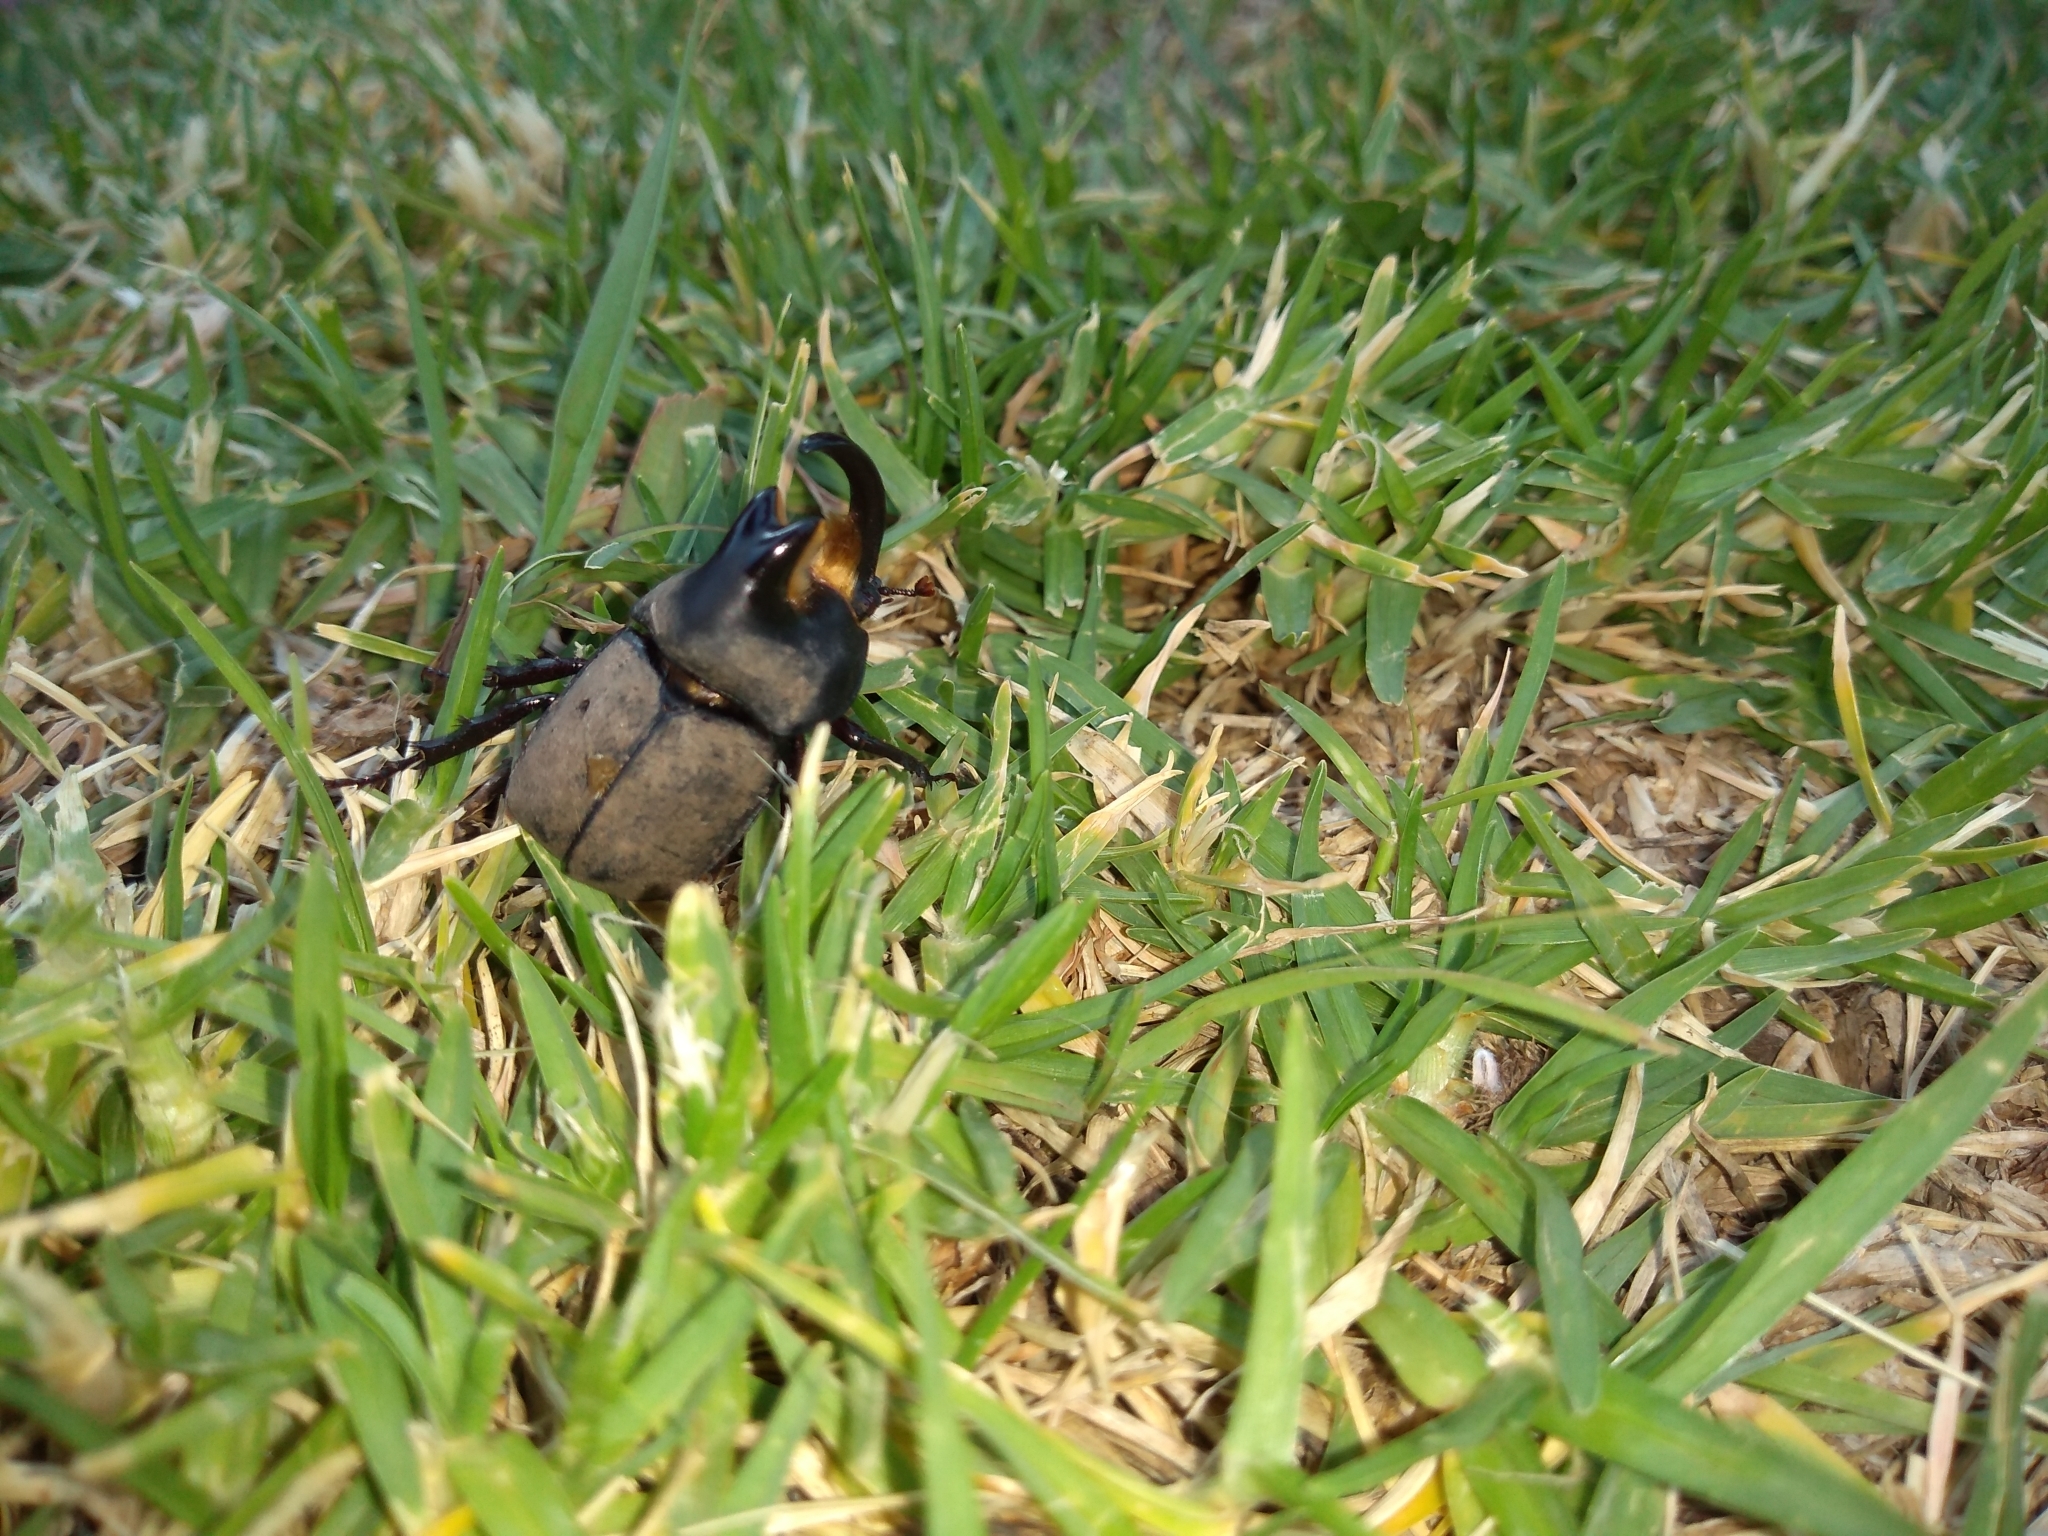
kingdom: Animalia
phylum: Arthropoda
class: Insecta
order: Coleoptera
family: Scarabaeidae
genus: Diloboderus
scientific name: Diloboderus abderus
